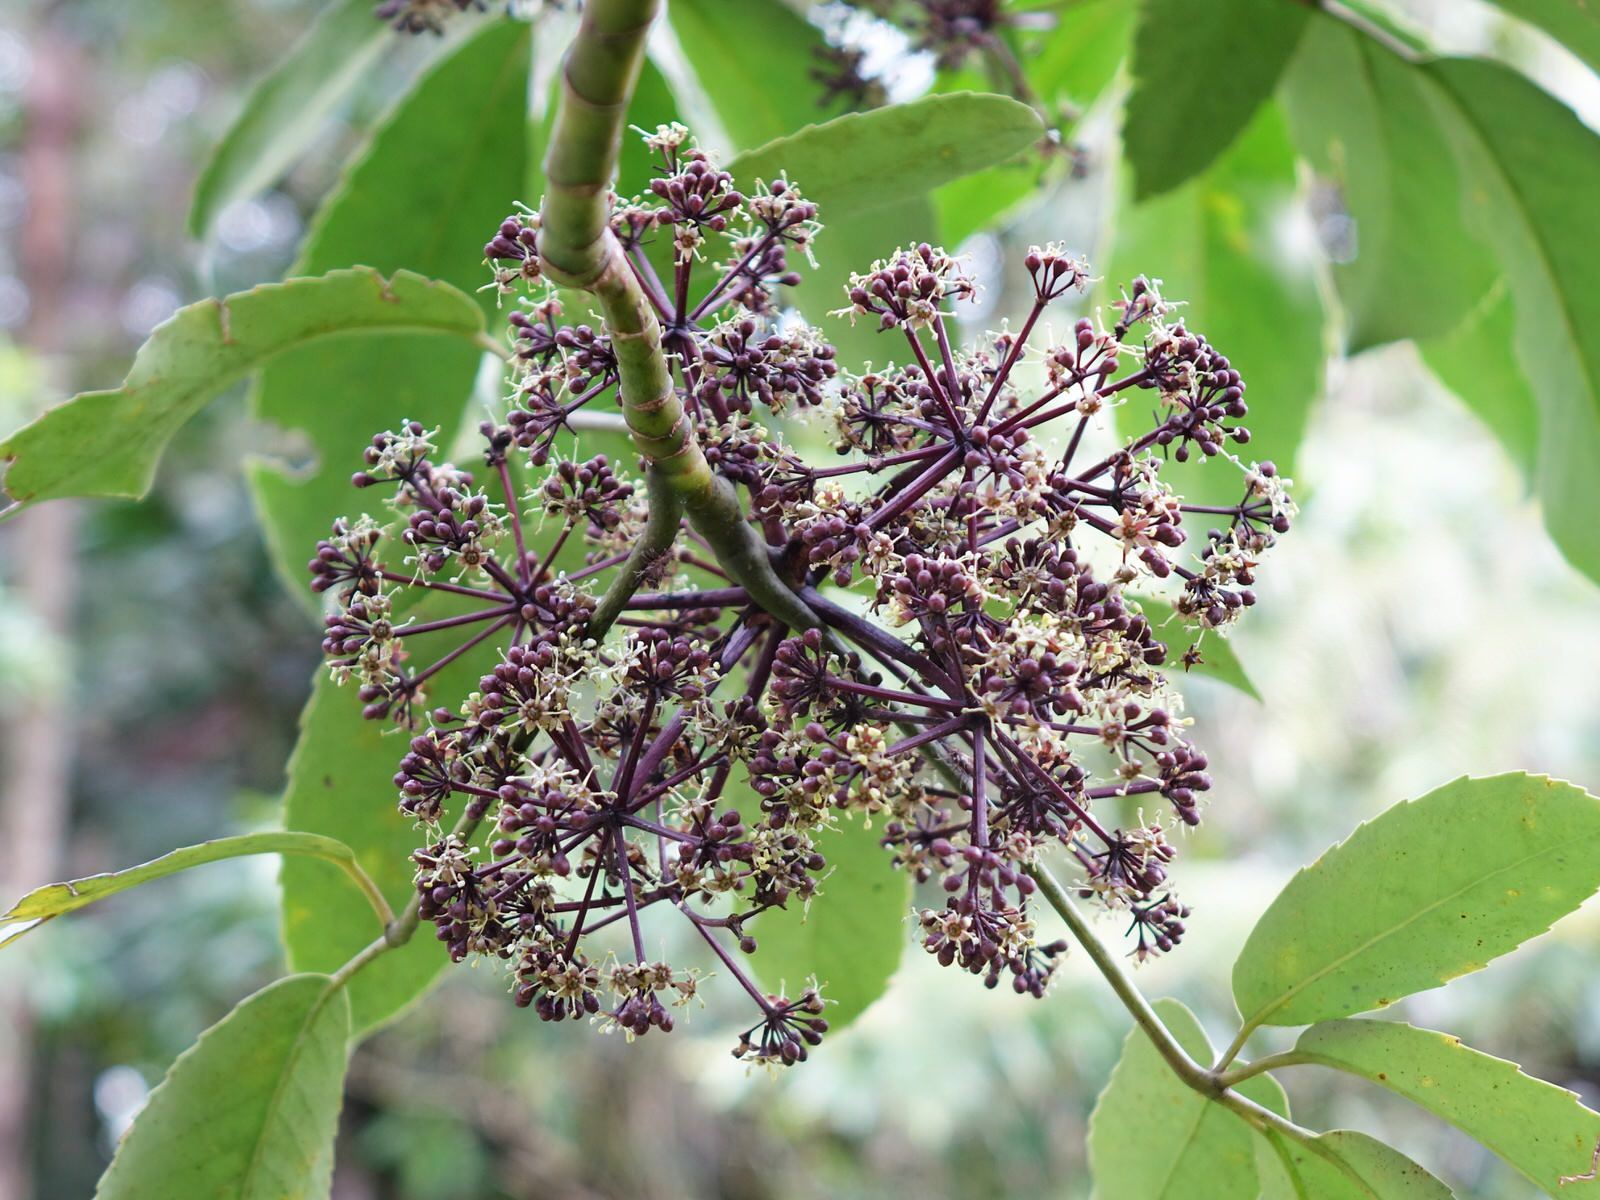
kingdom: Plantae
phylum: Tracheophyta
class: Magnoliopsida
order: Apiales
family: Araliaceae
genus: Neopanax
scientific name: Neopanax arboreus
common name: Five-fingers
